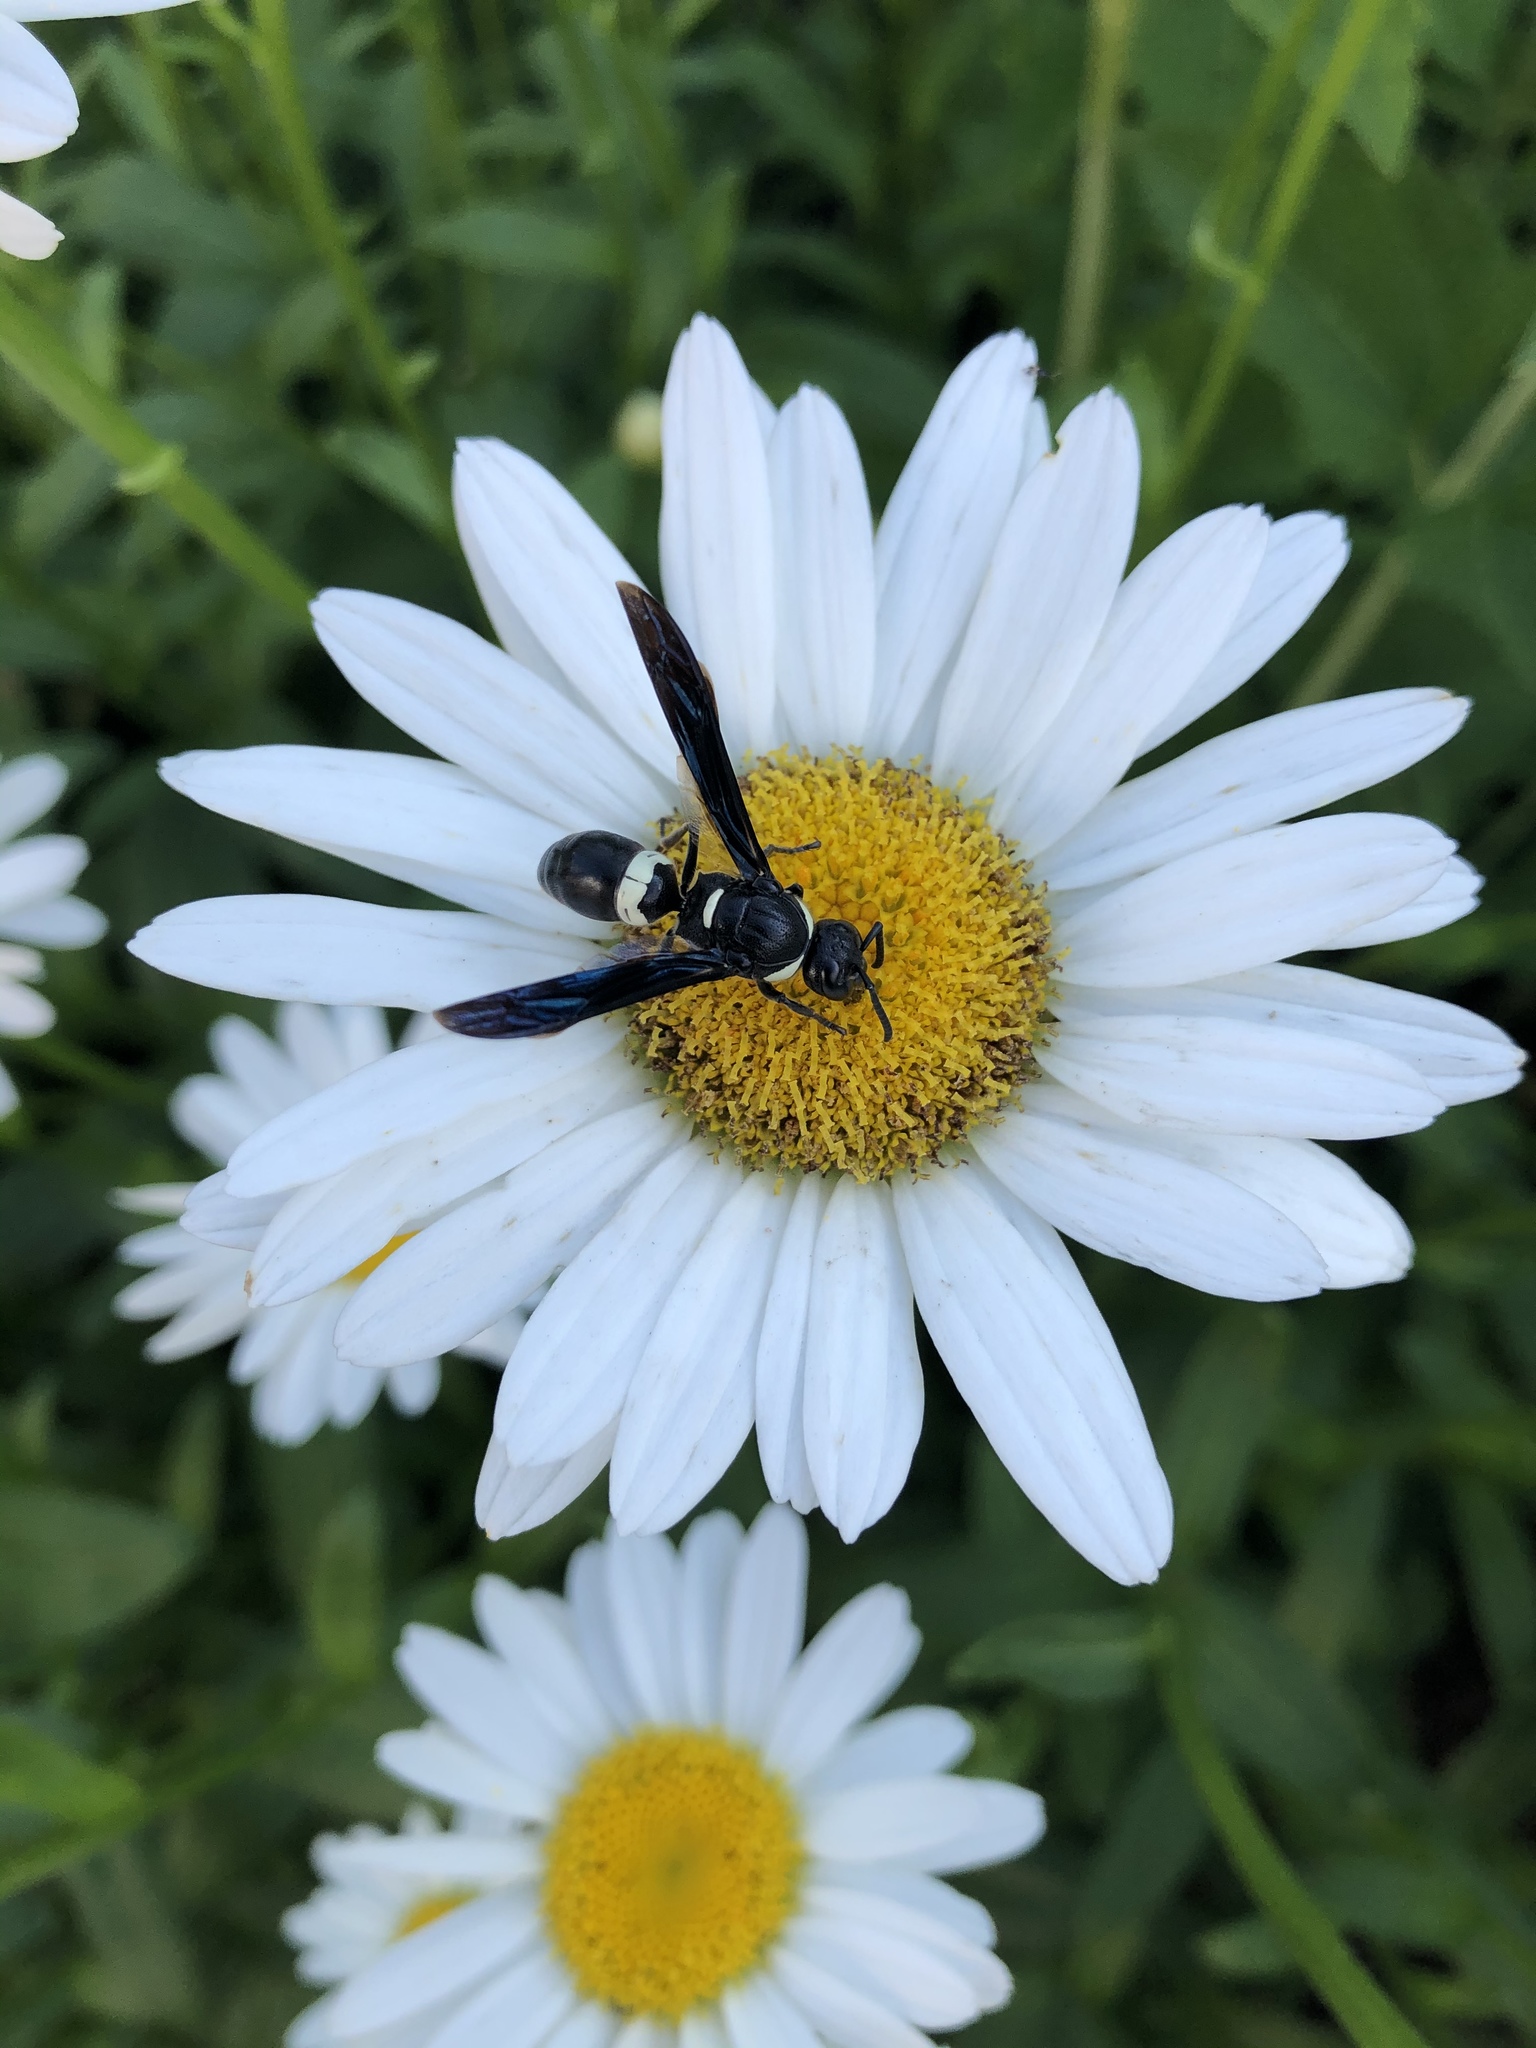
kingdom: Animalia
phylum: Arthropoda
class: Insecta
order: Hymenoptera
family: Eumenidae
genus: Monobia
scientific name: Monobia quadridens
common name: Four-toothed mason wasp
